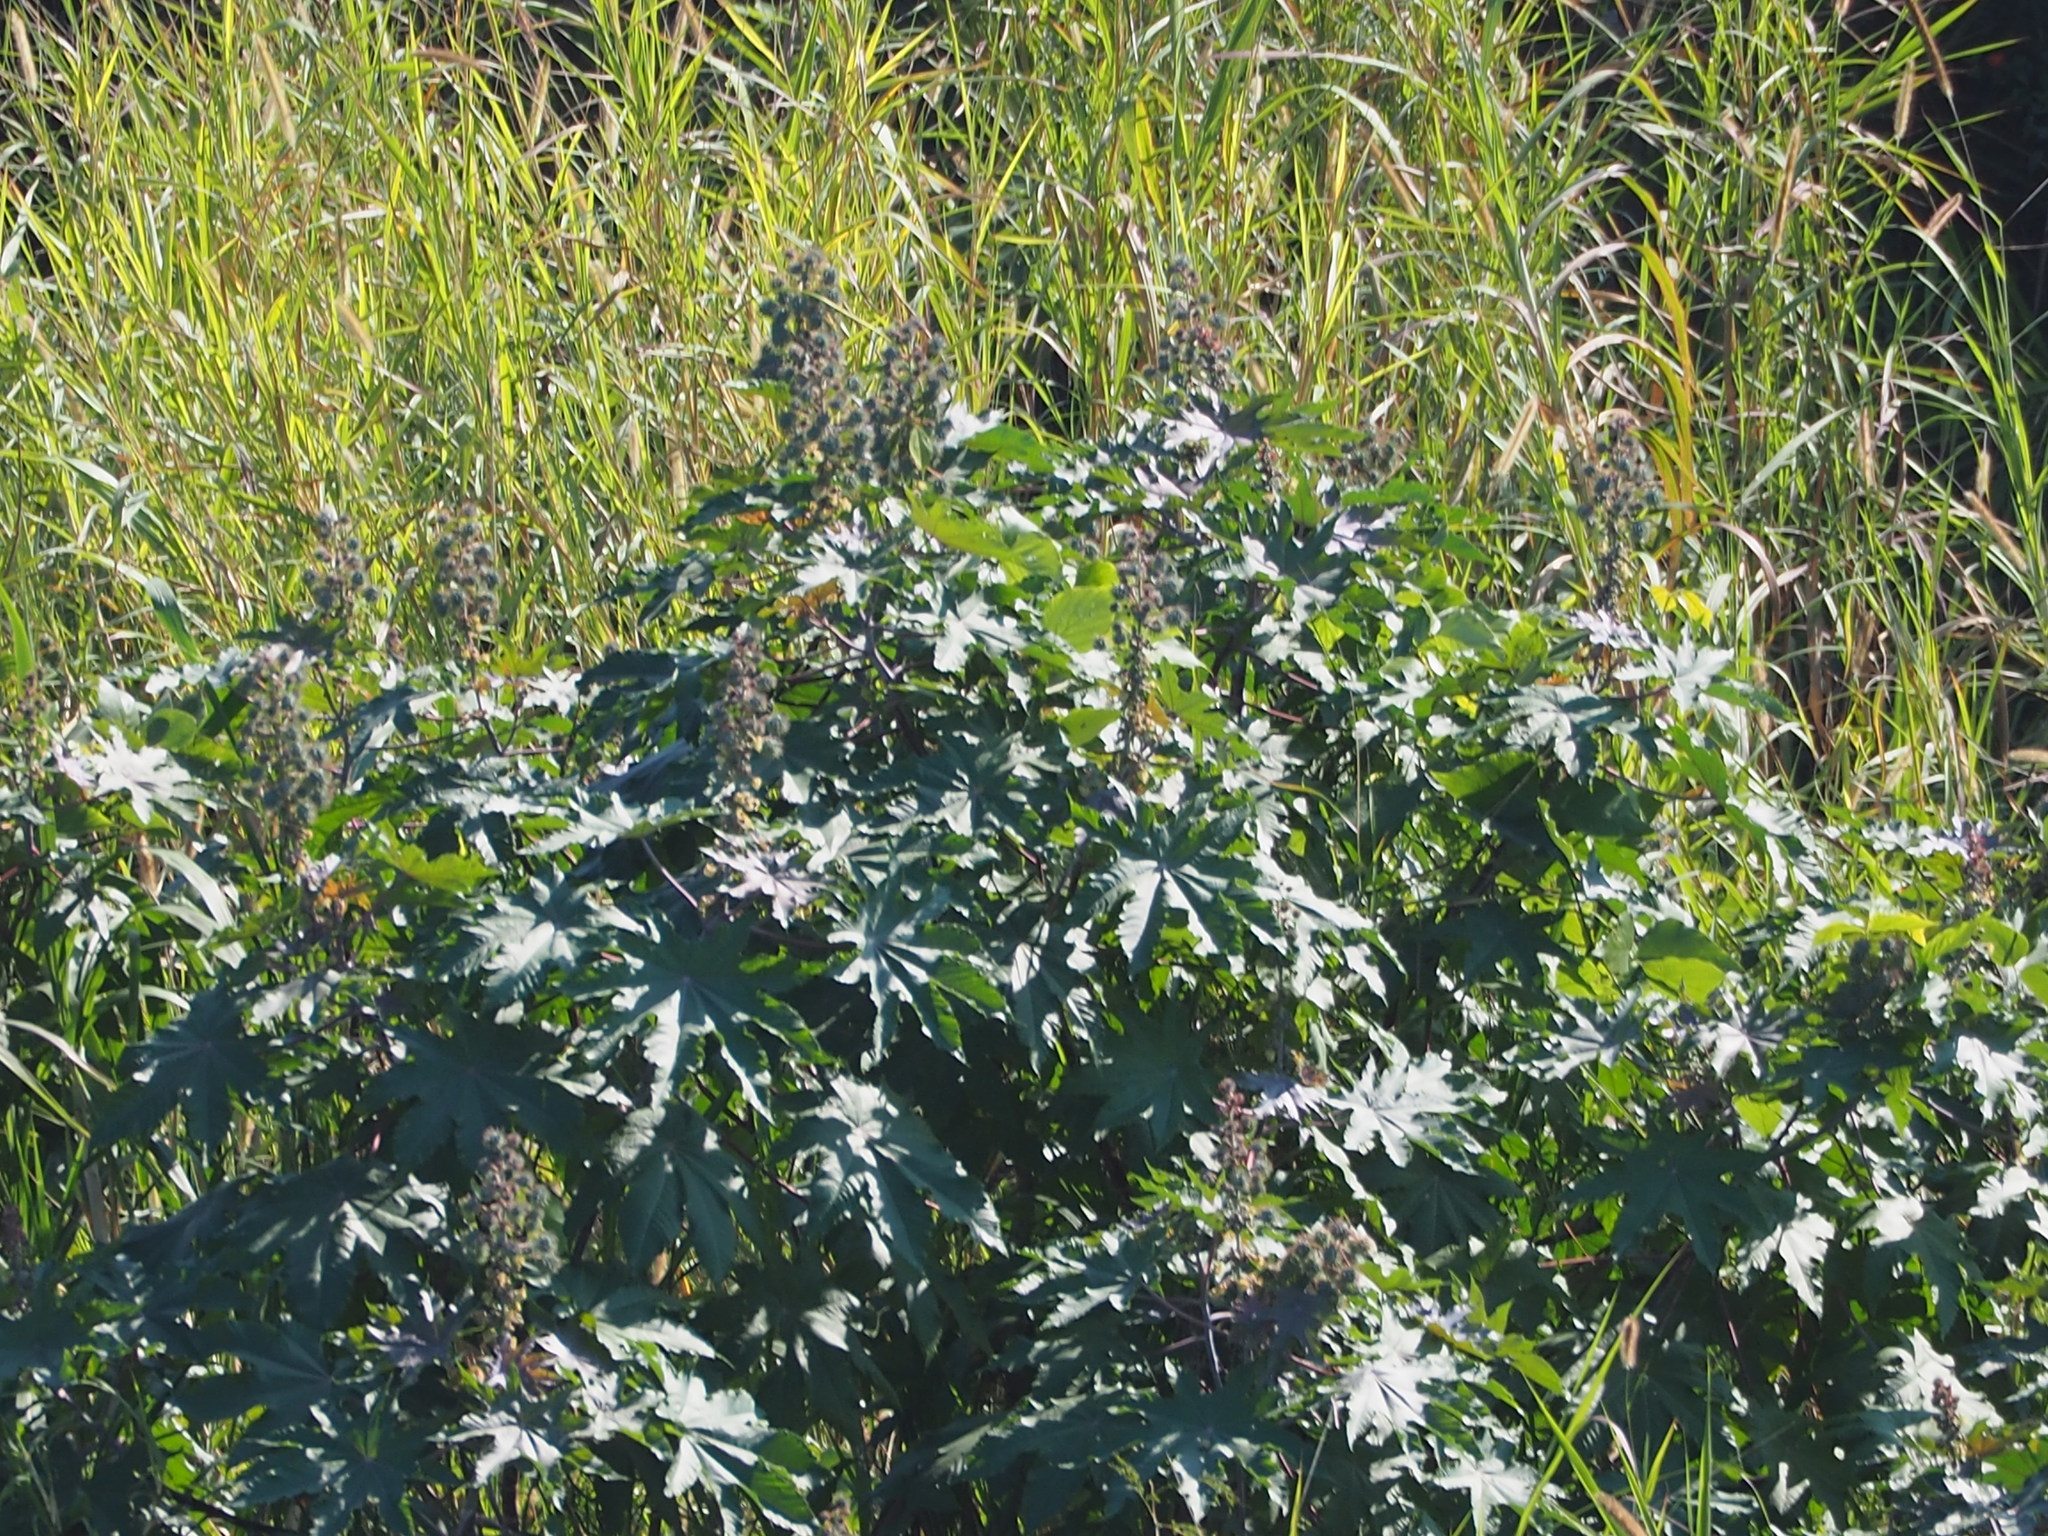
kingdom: Plantae
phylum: Tracheophyta
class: Magnoliopsida
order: Malpighiales
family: Euphorbiaceae
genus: Ricinus
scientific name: Ricinus communis
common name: Castor-oil-plant
